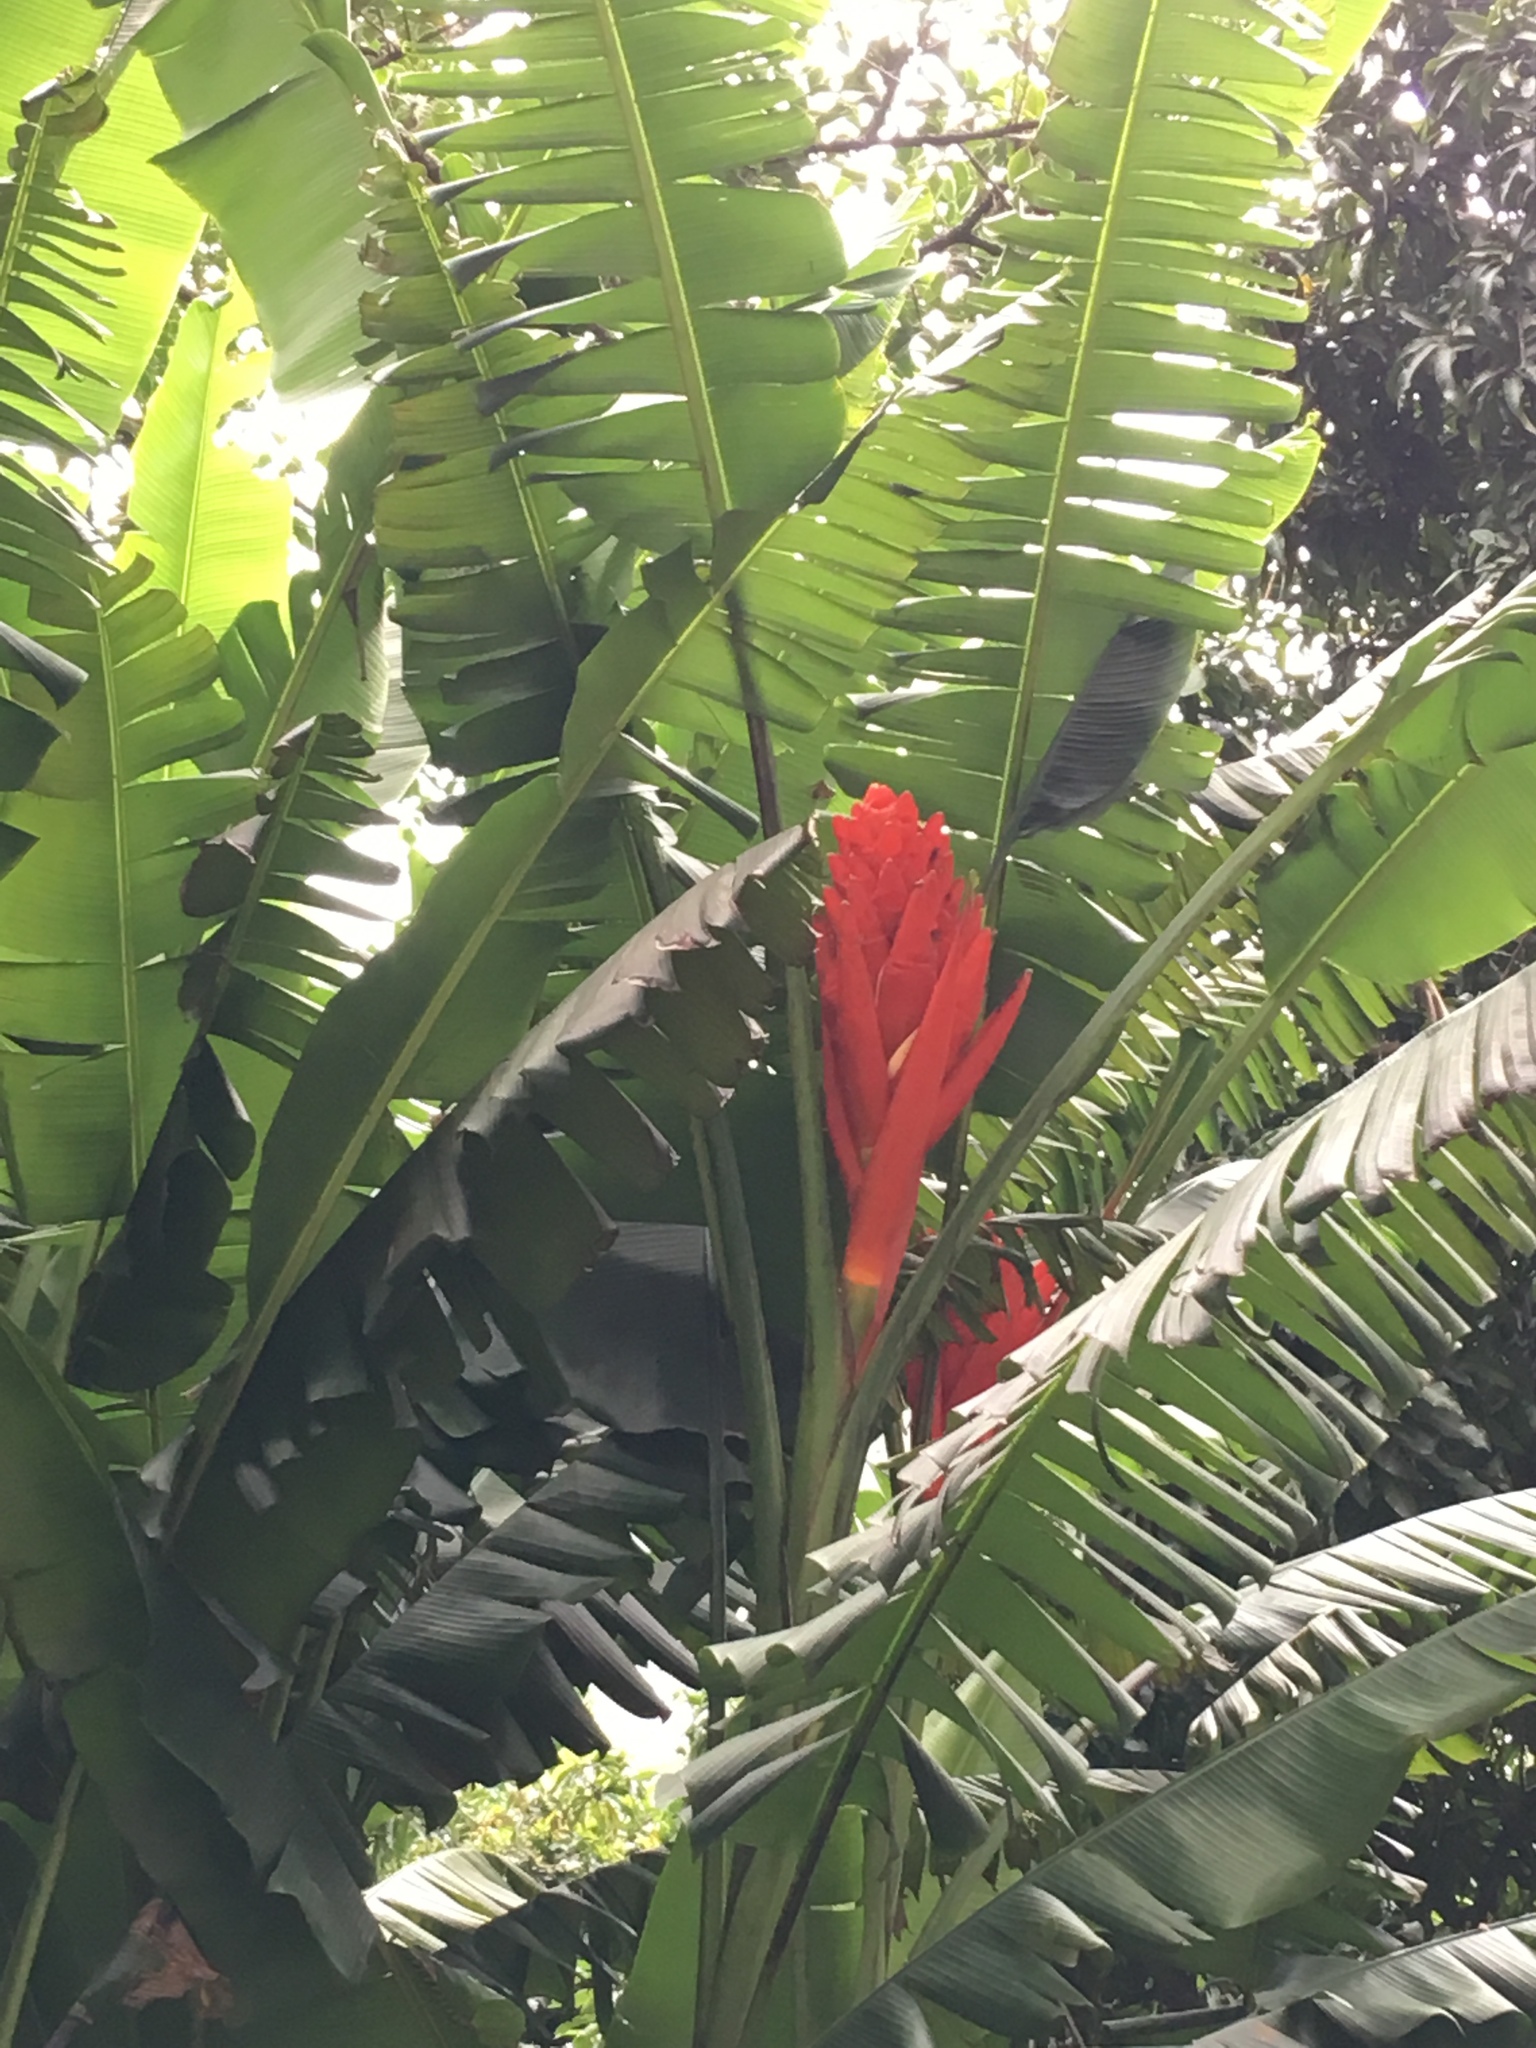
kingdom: Plantae
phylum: Tracheophyta
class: Liliopsida
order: Zingiberales
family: Musaceae
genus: Musa
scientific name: Musa coccinea
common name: Scarlet banana
